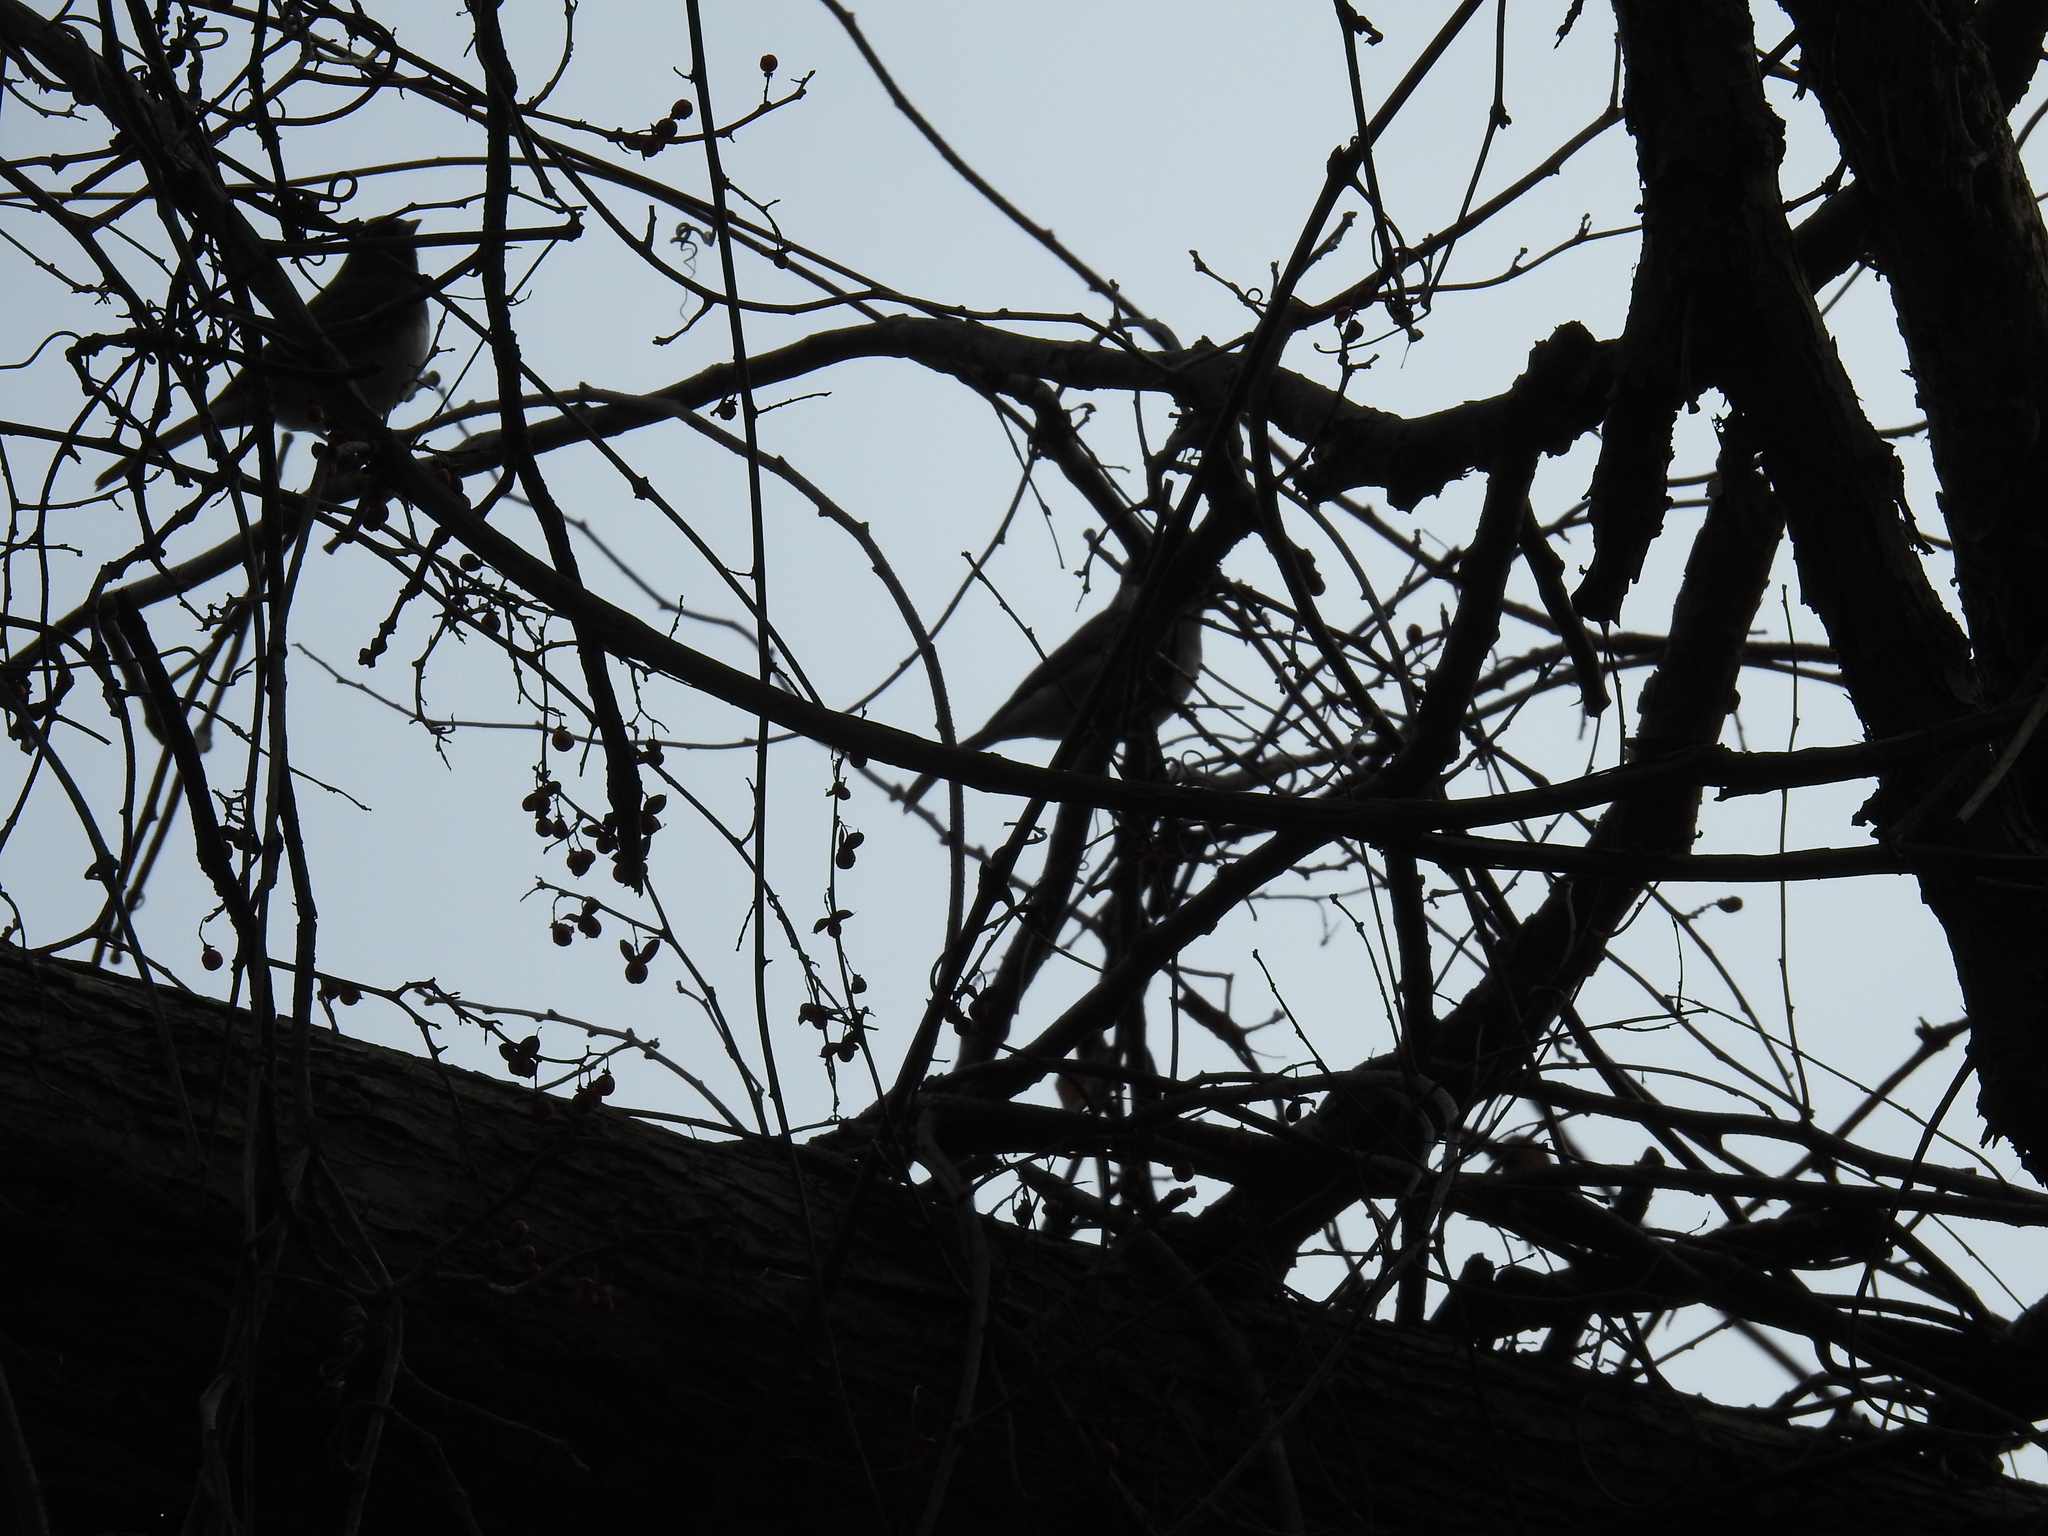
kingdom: Animalia
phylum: Chordata
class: Aves
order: Passeriformes
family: Passerellidae
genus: Junco
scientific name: Junco hyemalis
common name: Dark-eyed junco
